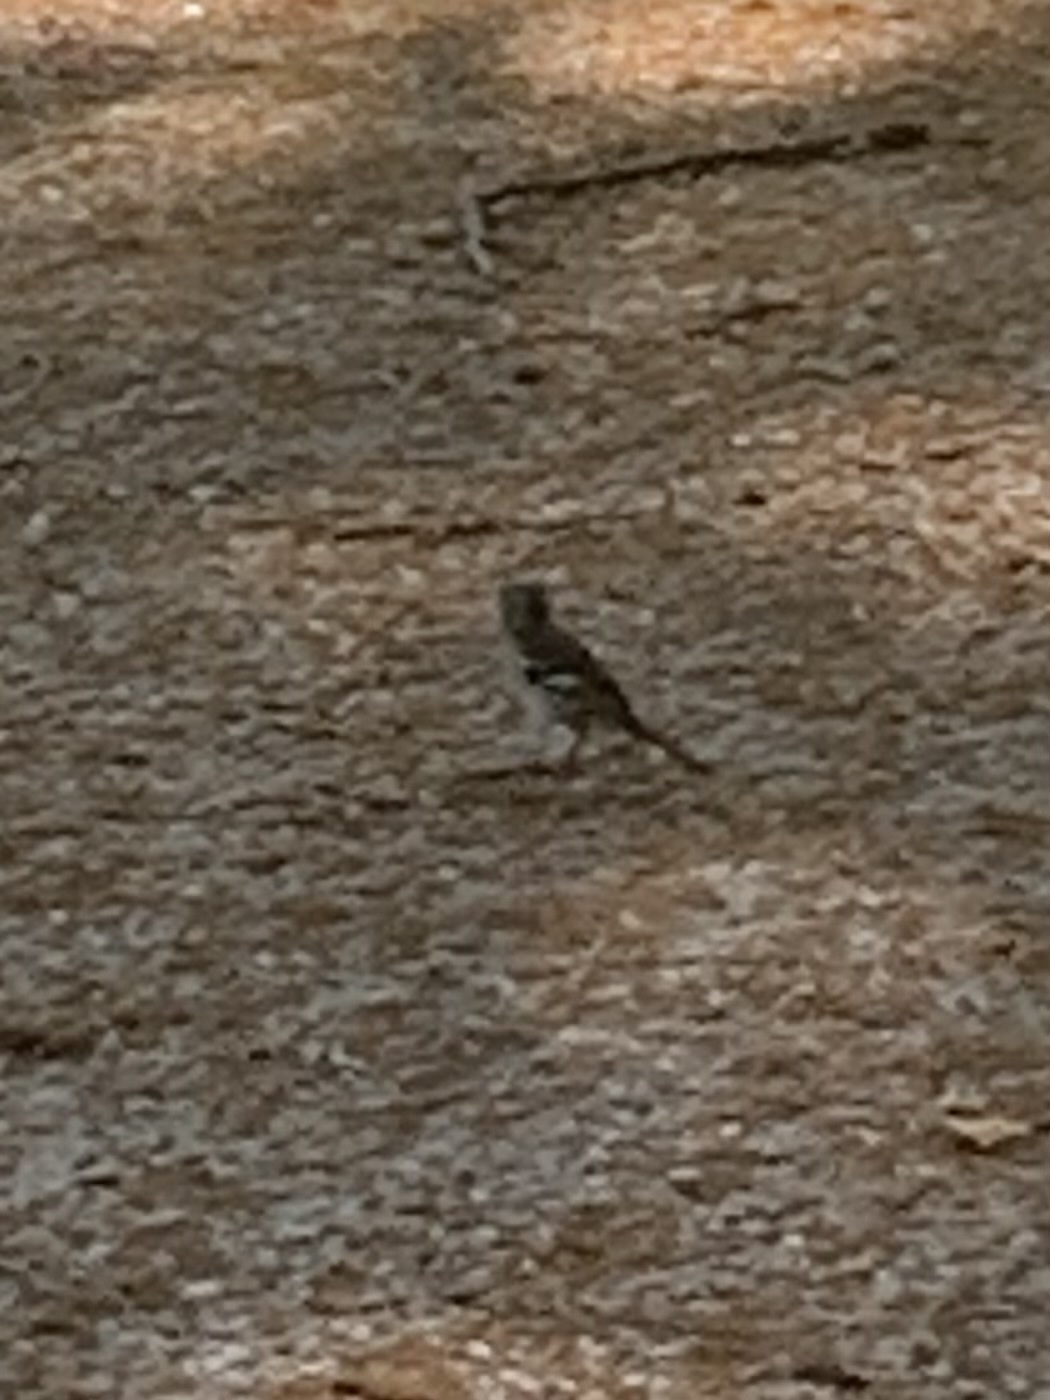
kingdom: Animalia
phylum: Chordata
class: Aves
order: Passeriformes
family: Fringillidae
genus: Fringilla
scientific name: Fringilla coelebs
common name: Common chaffinch
